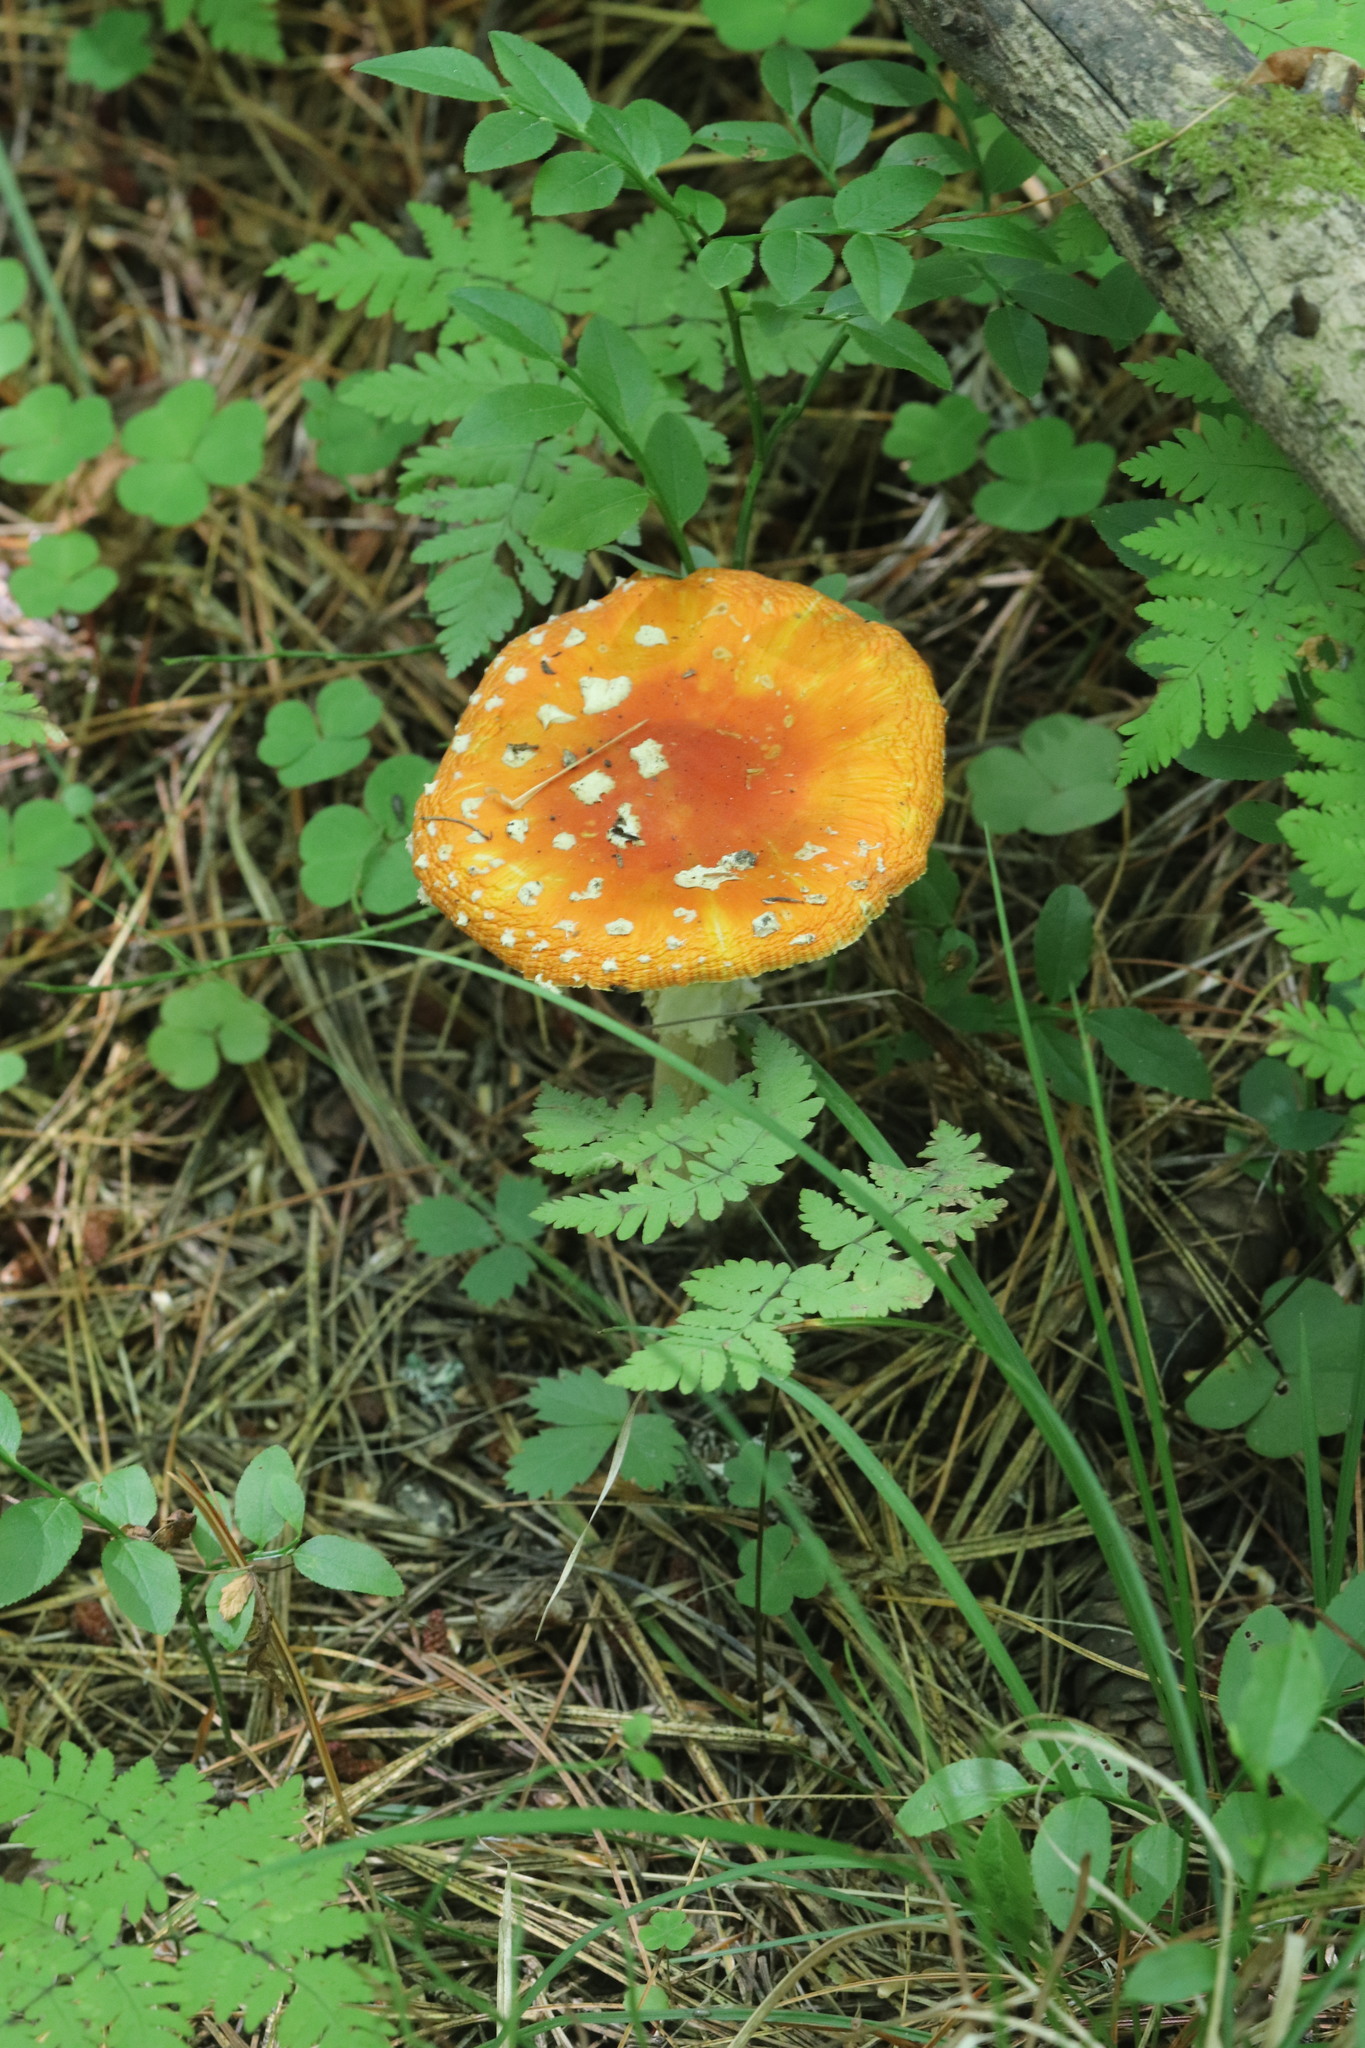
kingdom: Fungi
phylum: Basidiomycota
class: Agaricomycetes
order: Agaricales
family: Amanitaceae
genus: Amanita
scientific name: Amanita muscaria
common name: Fly agaric
